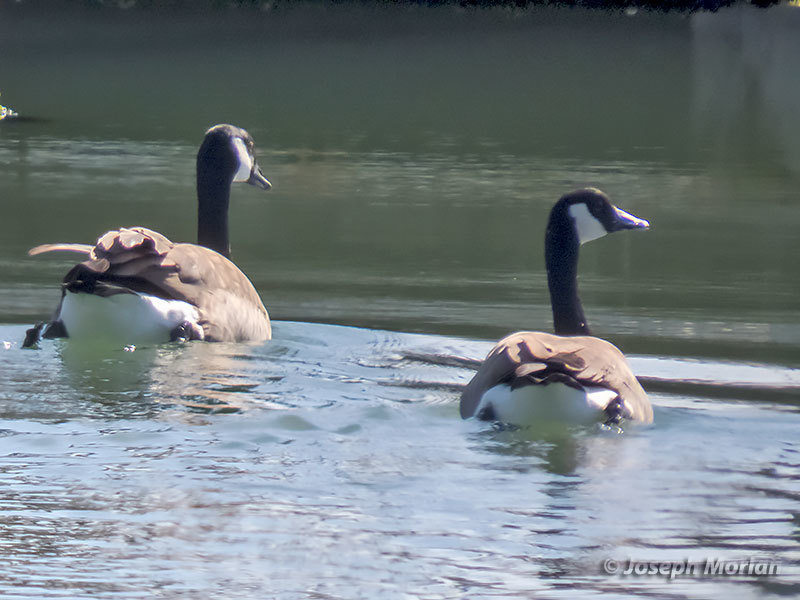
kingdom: Animalia
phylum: Chordata
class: Aves
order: Anseriformes
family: Anatidae
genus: Branta
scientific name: Branta canadensis
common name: Canada goose
